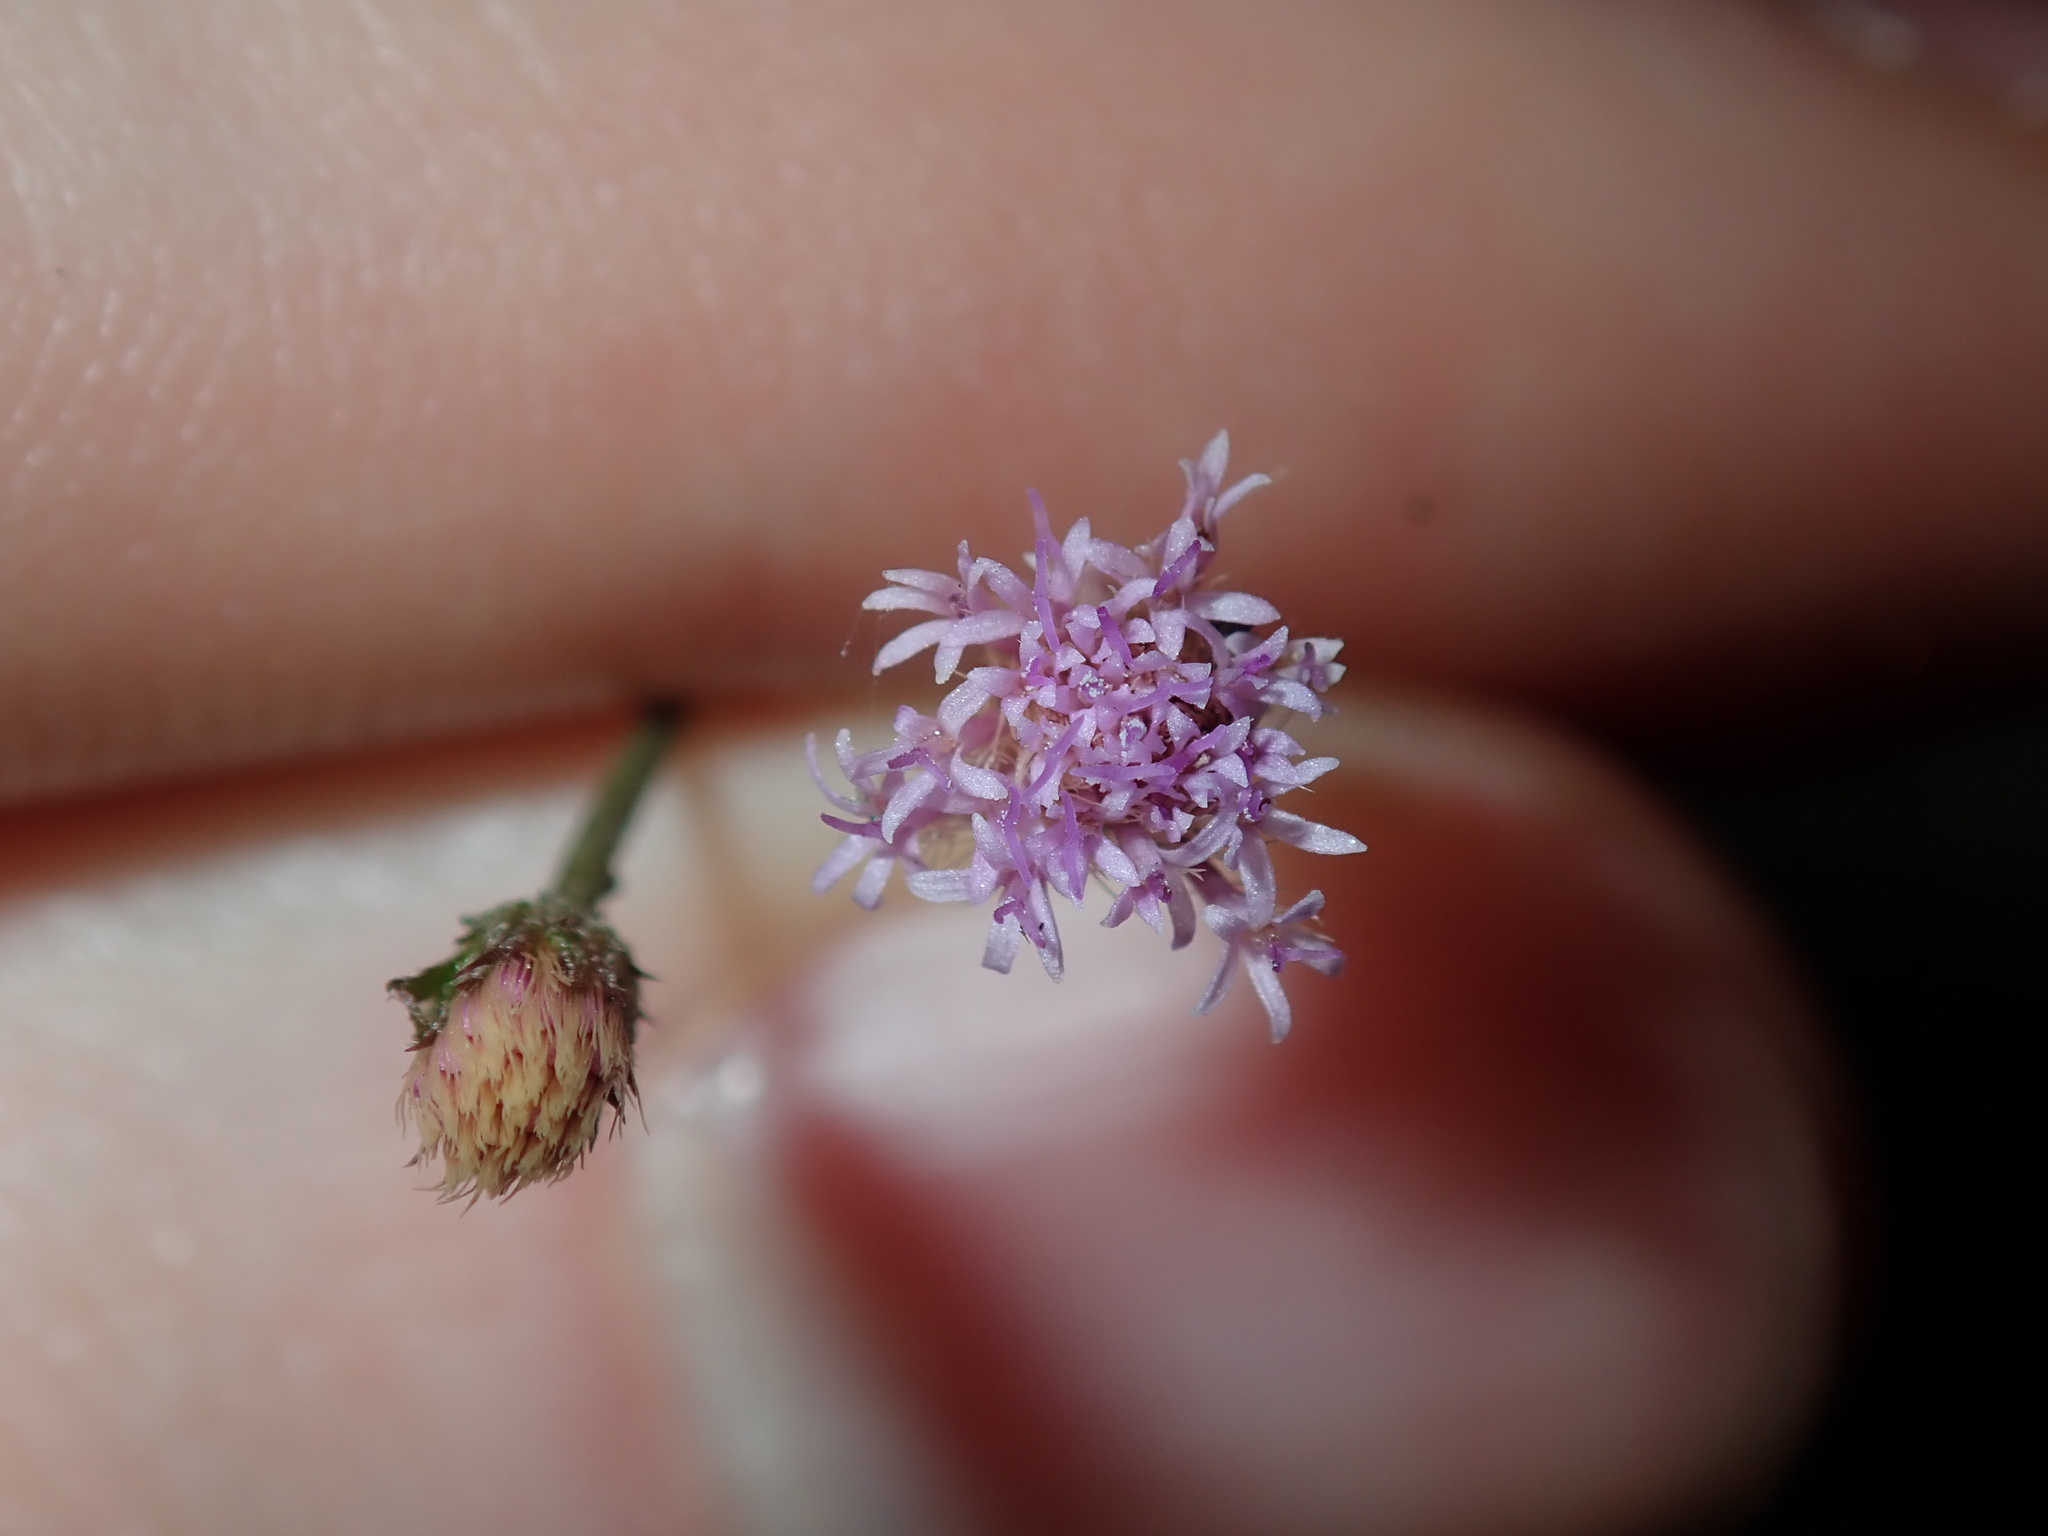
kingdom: Plantae
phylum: Tracheophyta
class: Magnoliopsida
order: Asterales
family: Asteraceae
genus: Cyanthillium
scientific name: Cyanthillium cinereum
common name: Little ironweed
